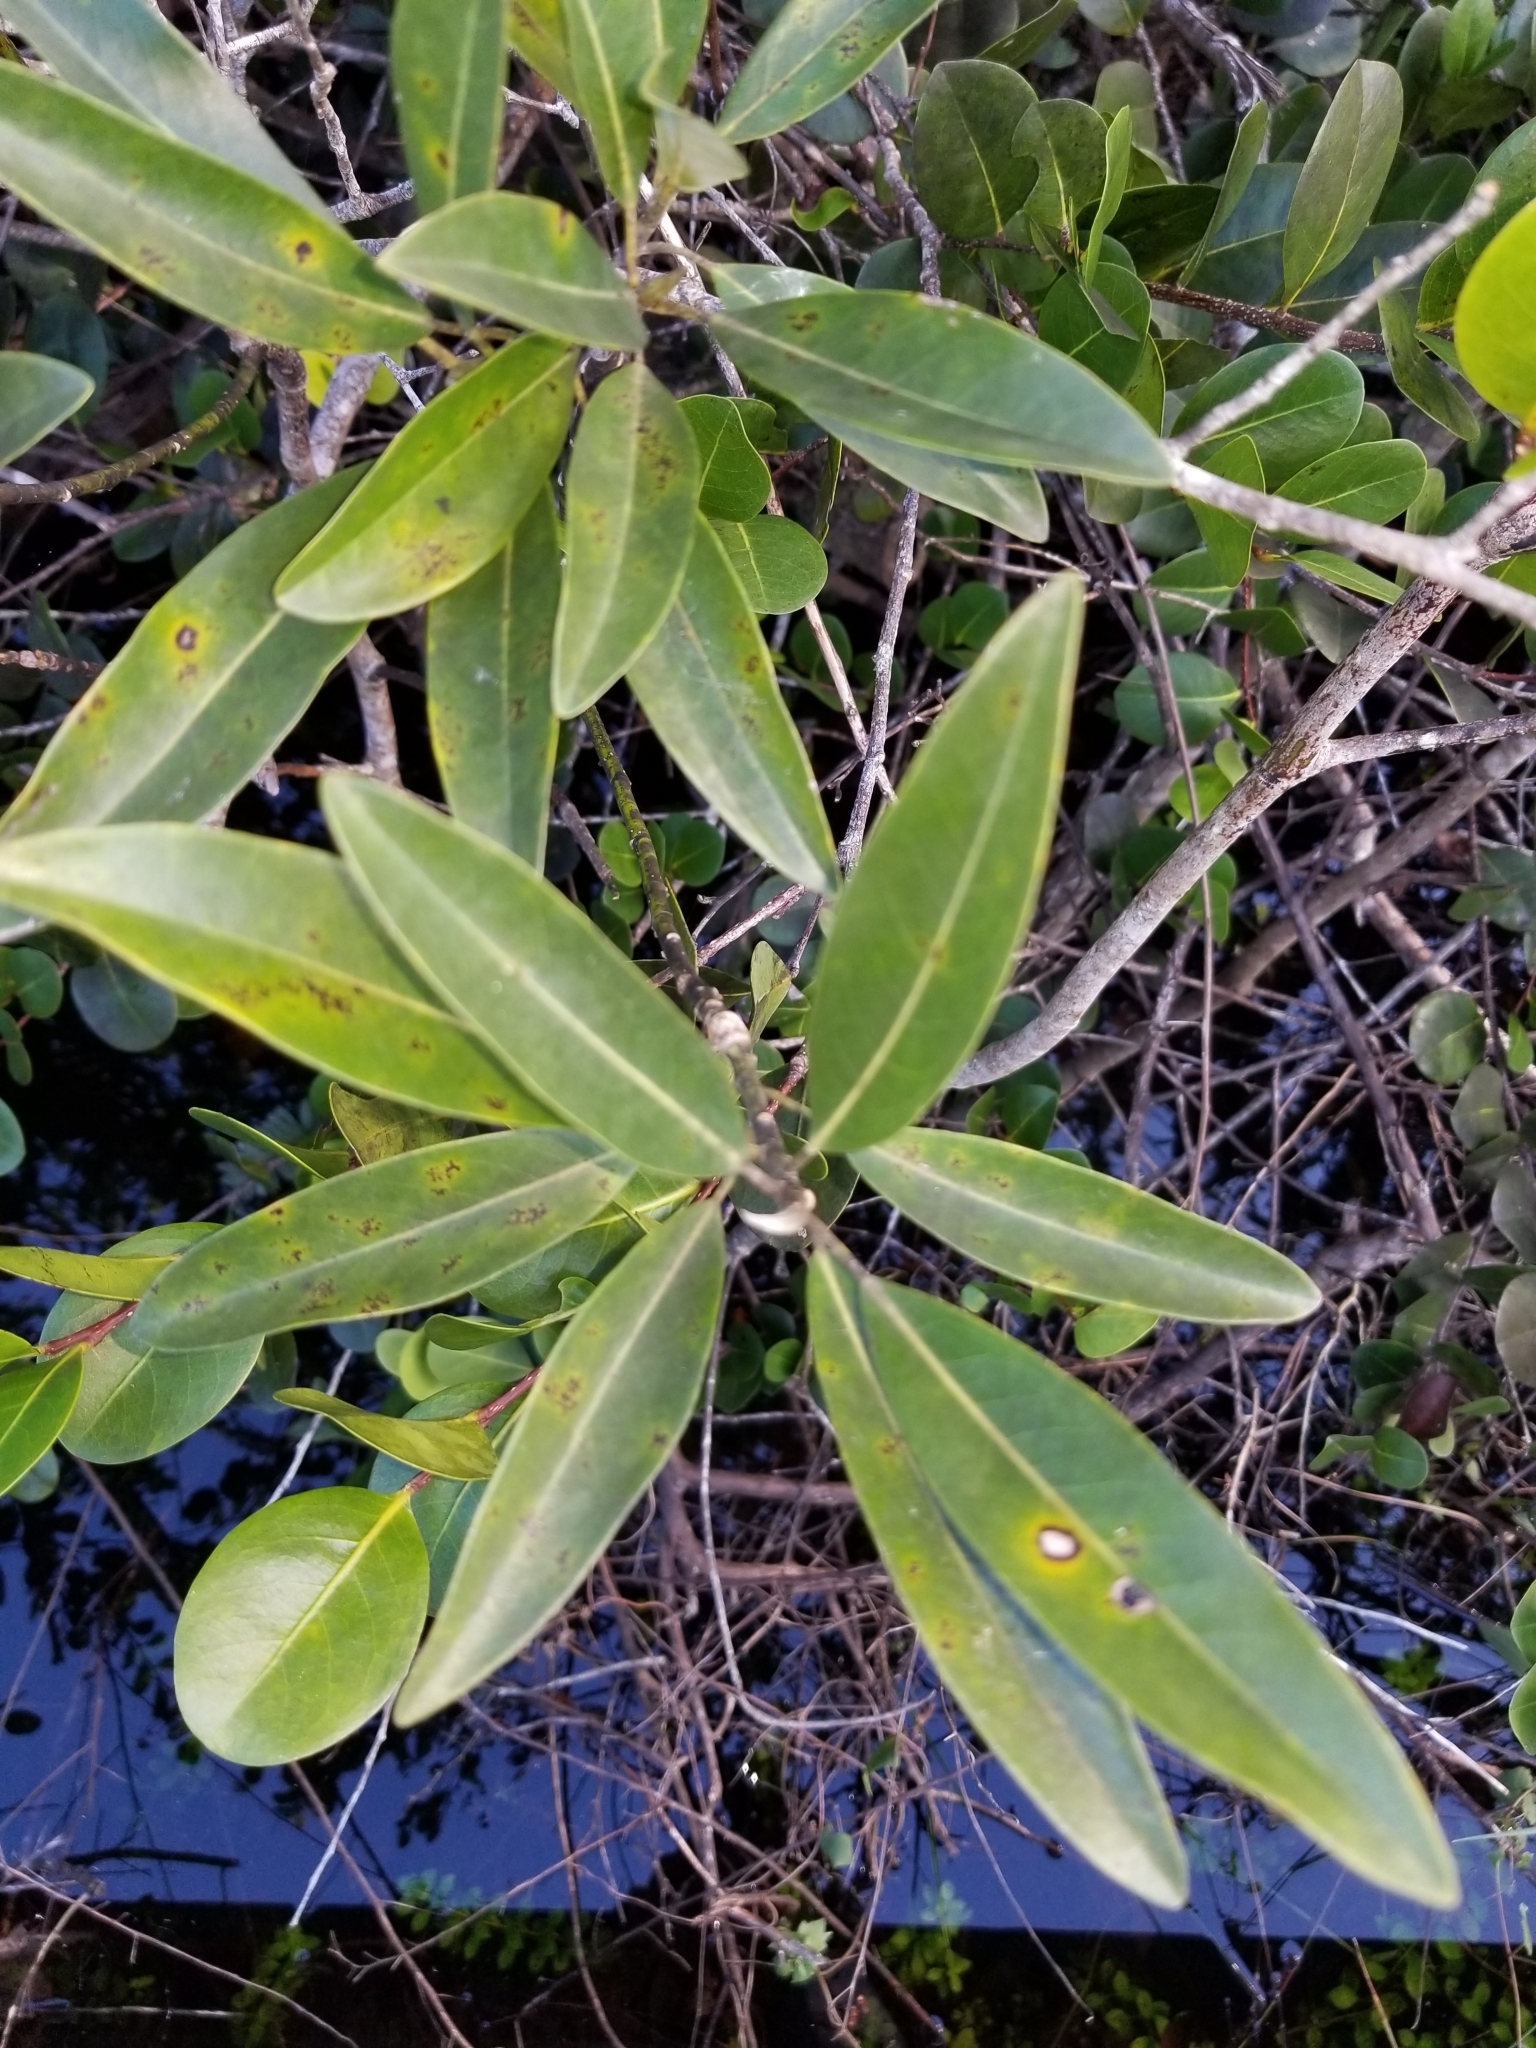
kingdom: Plantae
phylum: Tracheophyta
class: Magnoliopsida
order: Magnoliales
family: Magnoliaceae
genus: Magnolia
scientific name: Magnolia virginiana
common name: Swamp bay
